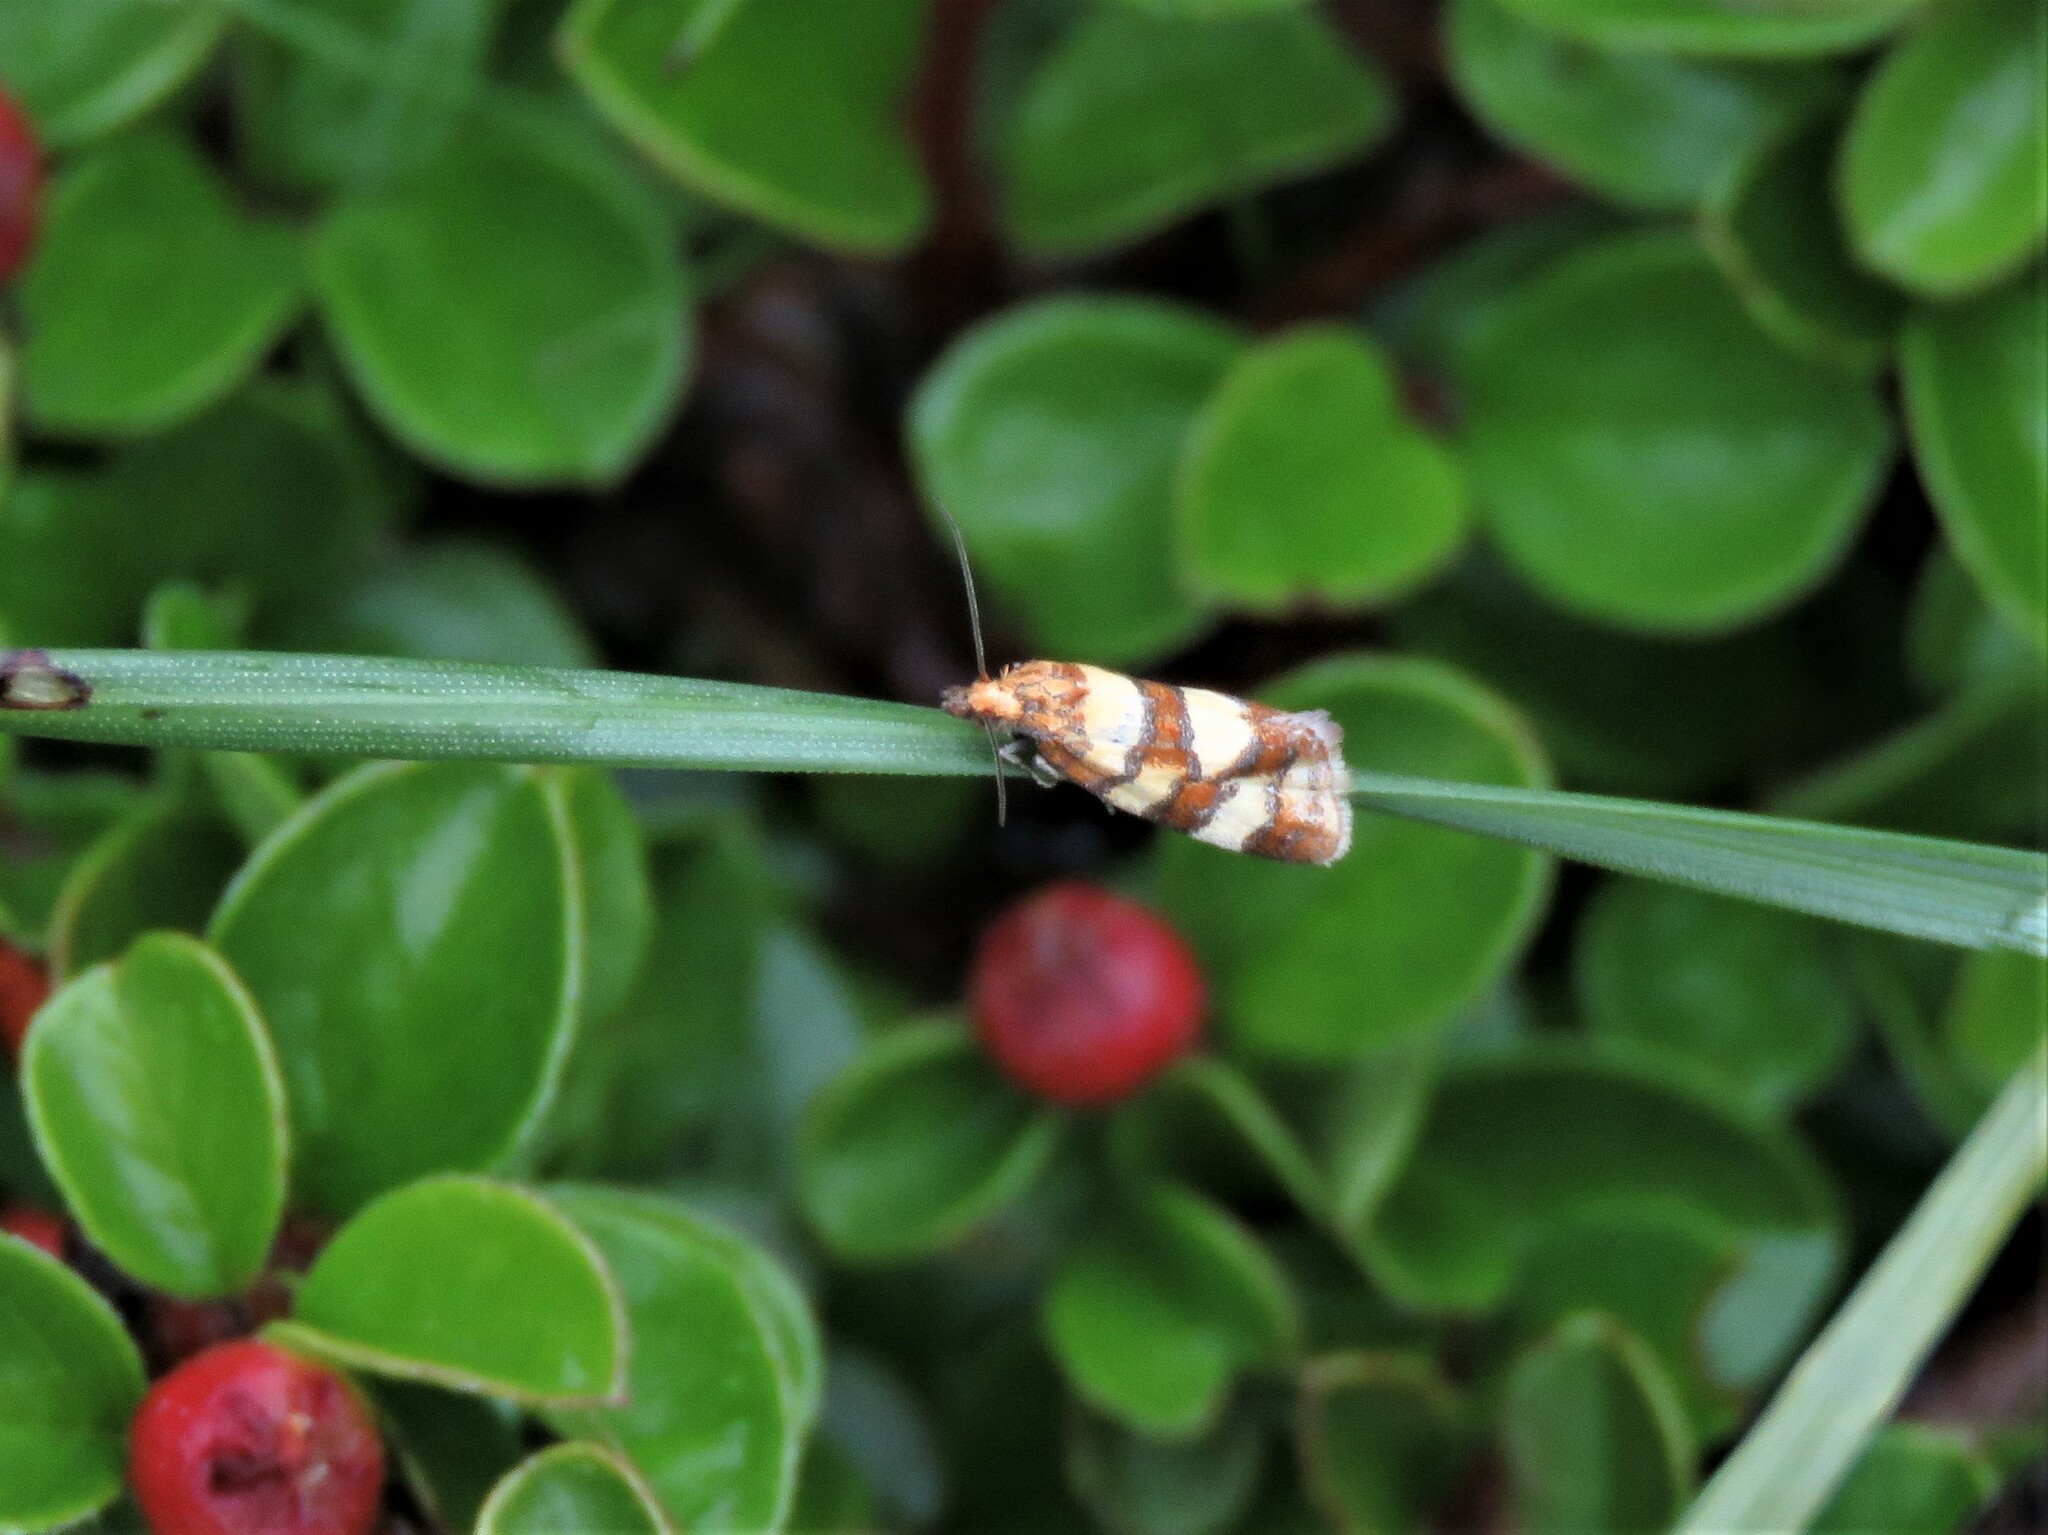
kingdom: Animalia
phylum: Arthropoda
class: Insecta
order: Lepidoptera
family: Tortricidae
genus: Aethes
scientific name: Aethes tesserana
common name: Downland conch
